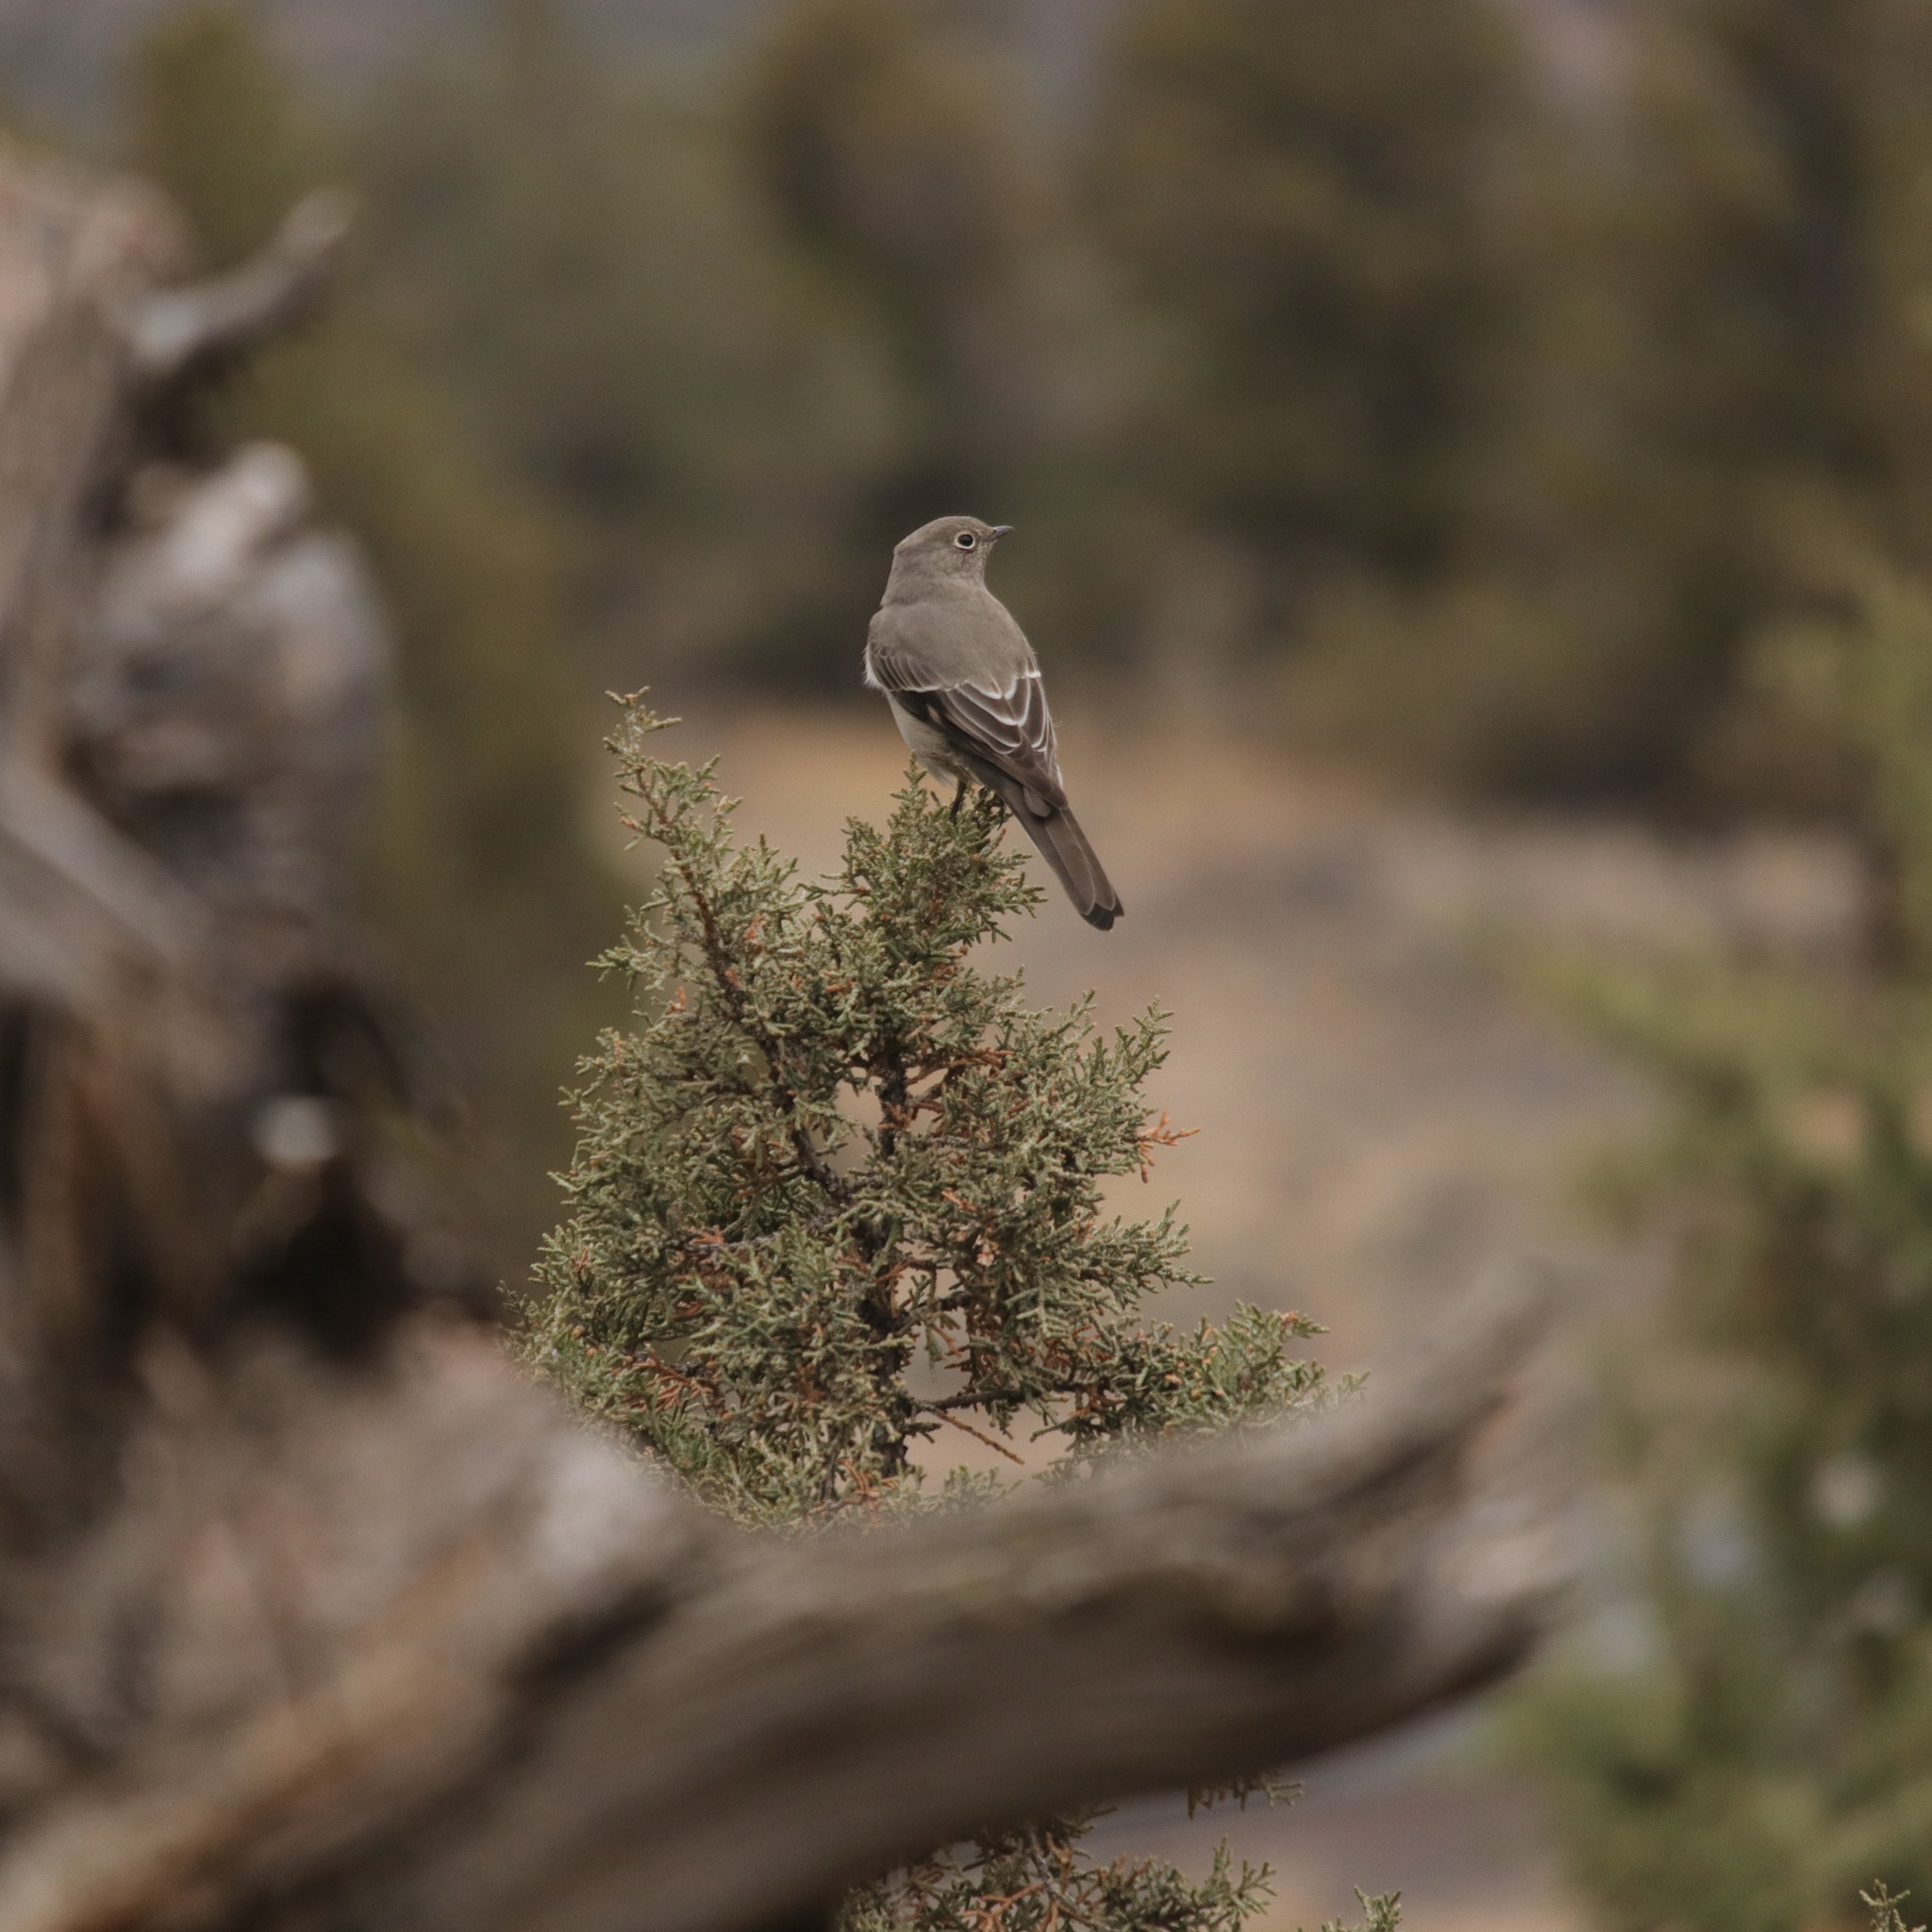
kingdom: Animalia
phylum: Chordata
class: Aves
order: Passeriformes
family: Turdidae
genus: Myadestes
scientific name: Myadestes townsendi
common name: Townsend's solitaire
